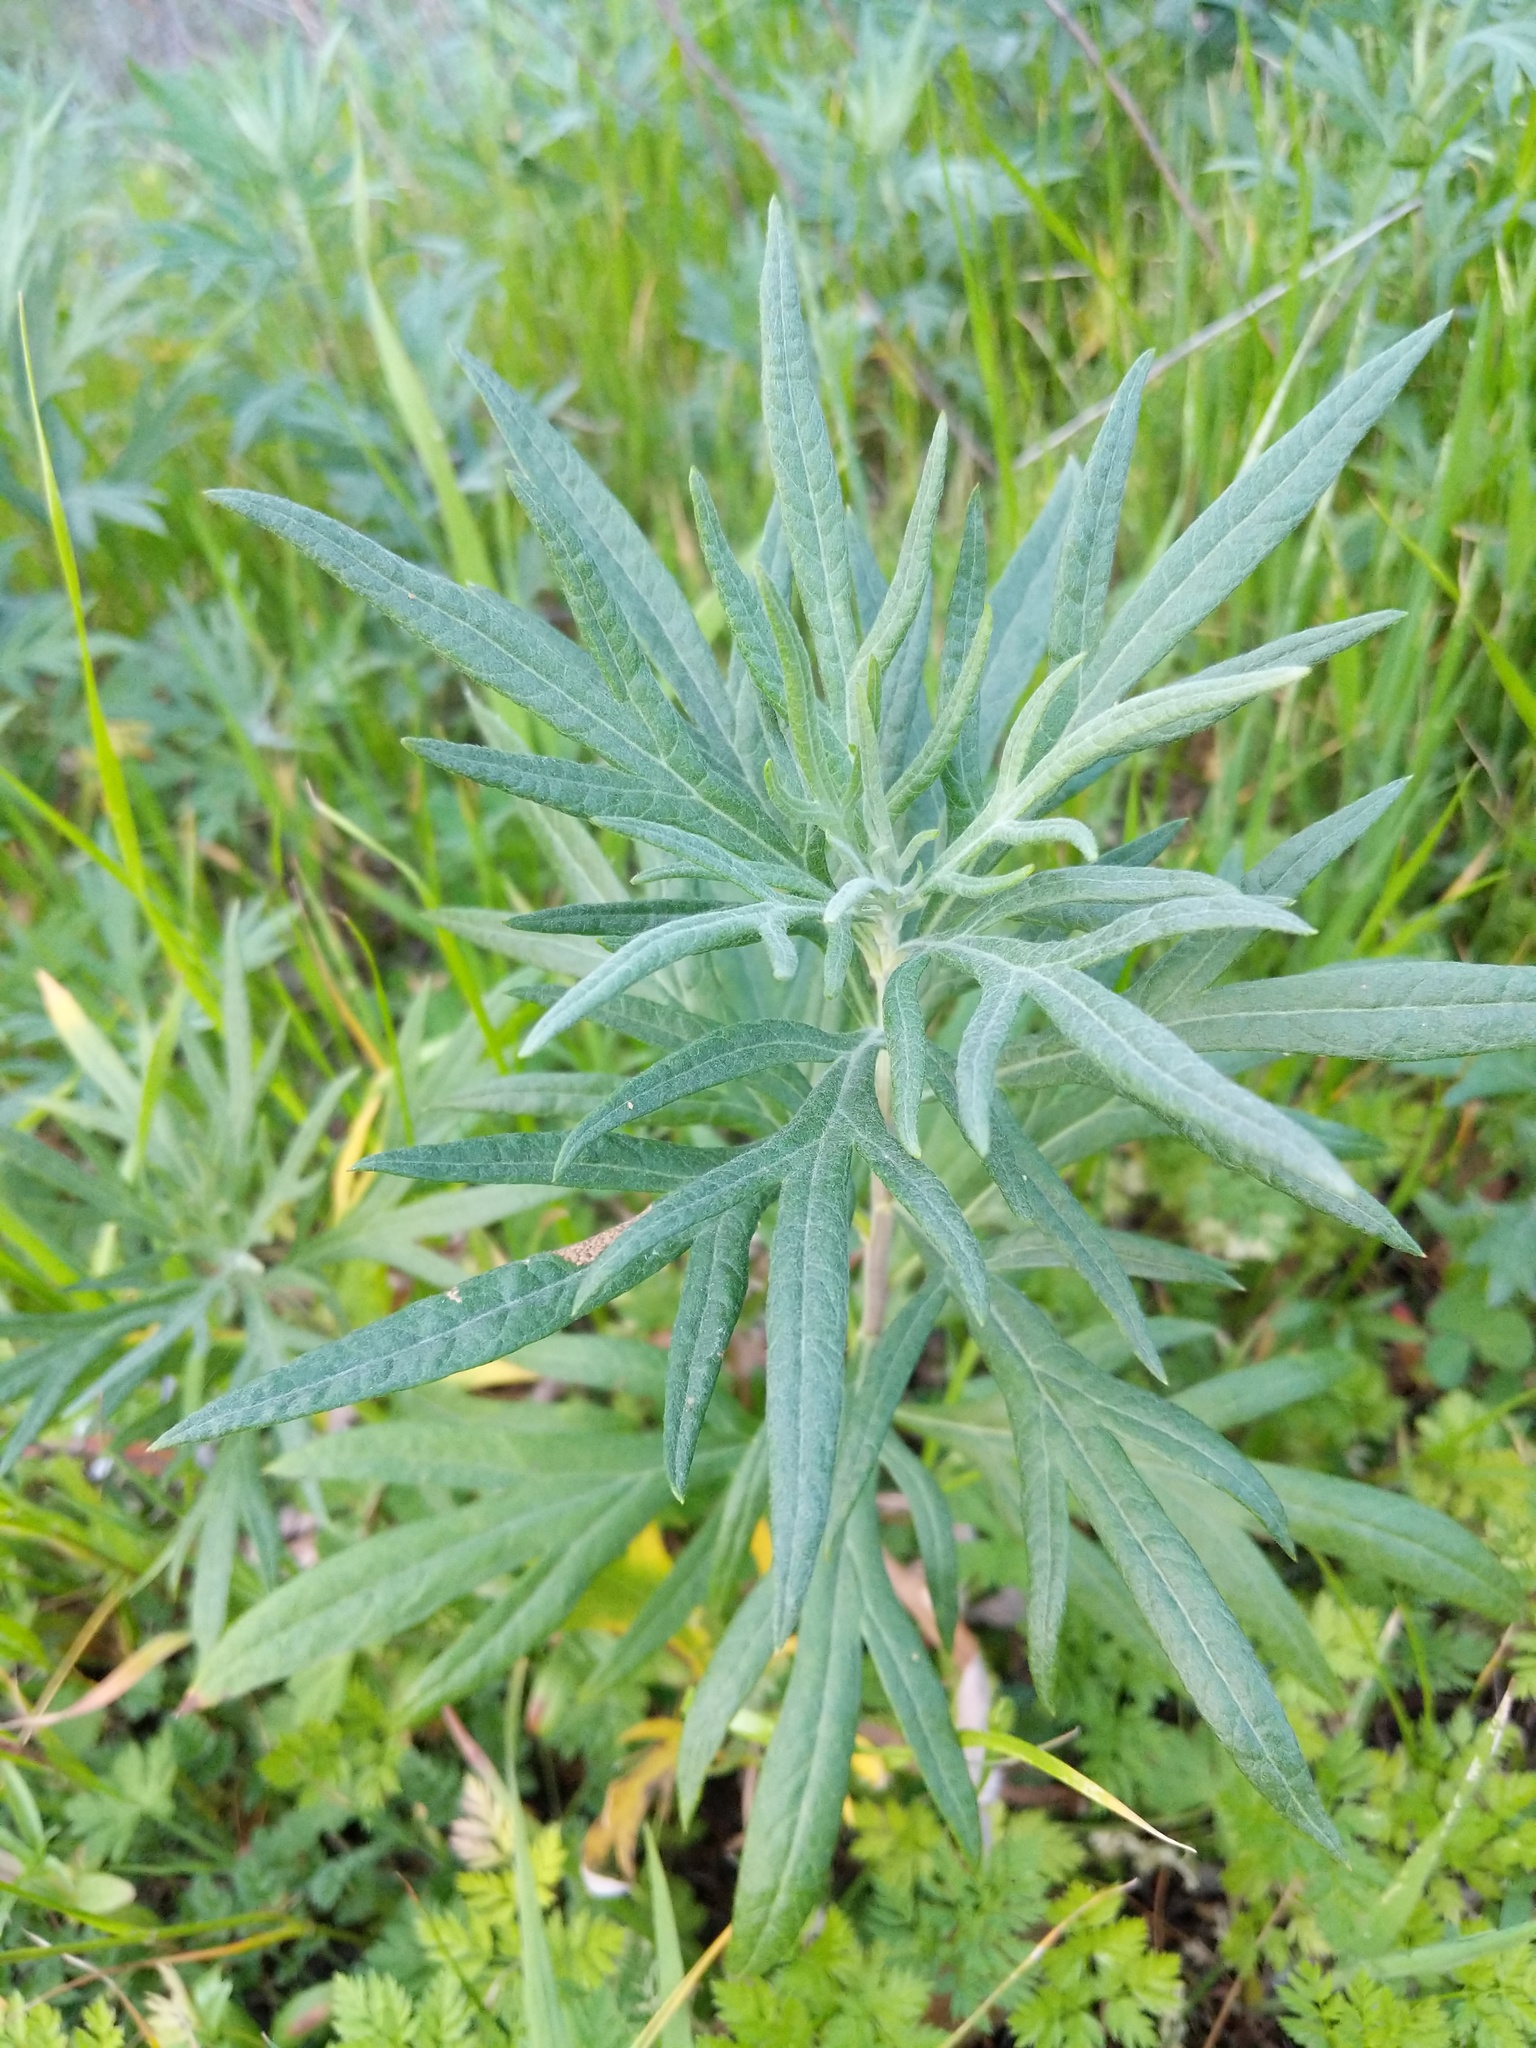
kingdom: Plantae
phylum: Tracheophyta
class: Magnoliopsida
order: Asterales
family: Asteraceae
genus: Artemisia
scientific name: Artemisia douglasiana
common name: Northwest mugwort
